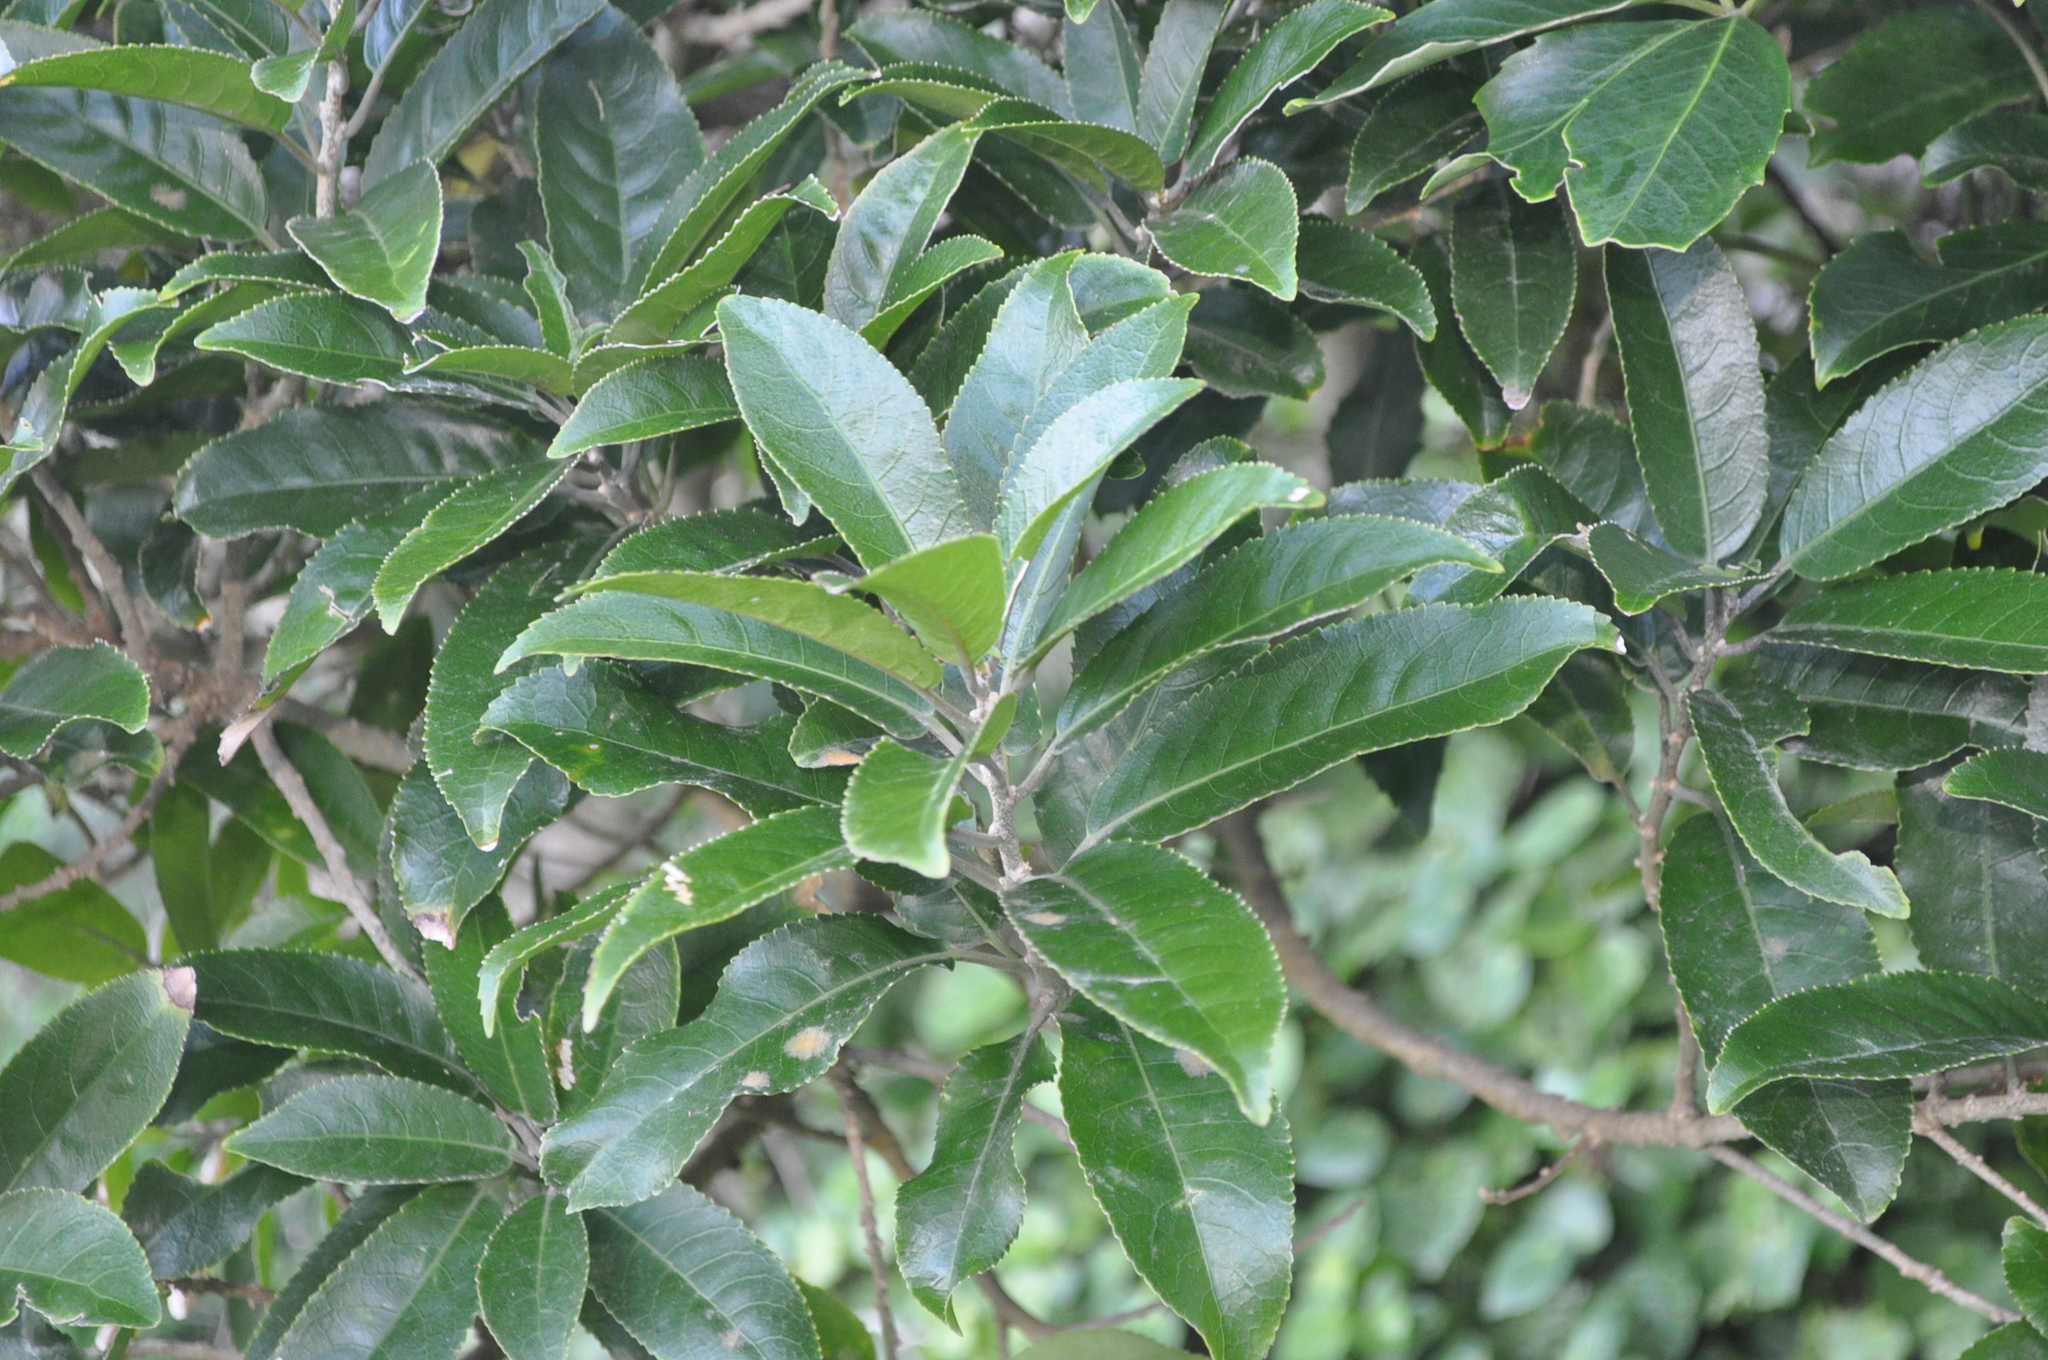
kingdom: Plantae
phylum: Tracheophyta
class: Magnoliopsida
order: Malpighiales
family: Violaceae
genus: Melicytus
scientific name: Melicytus ramiflorus
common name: Mahoe
